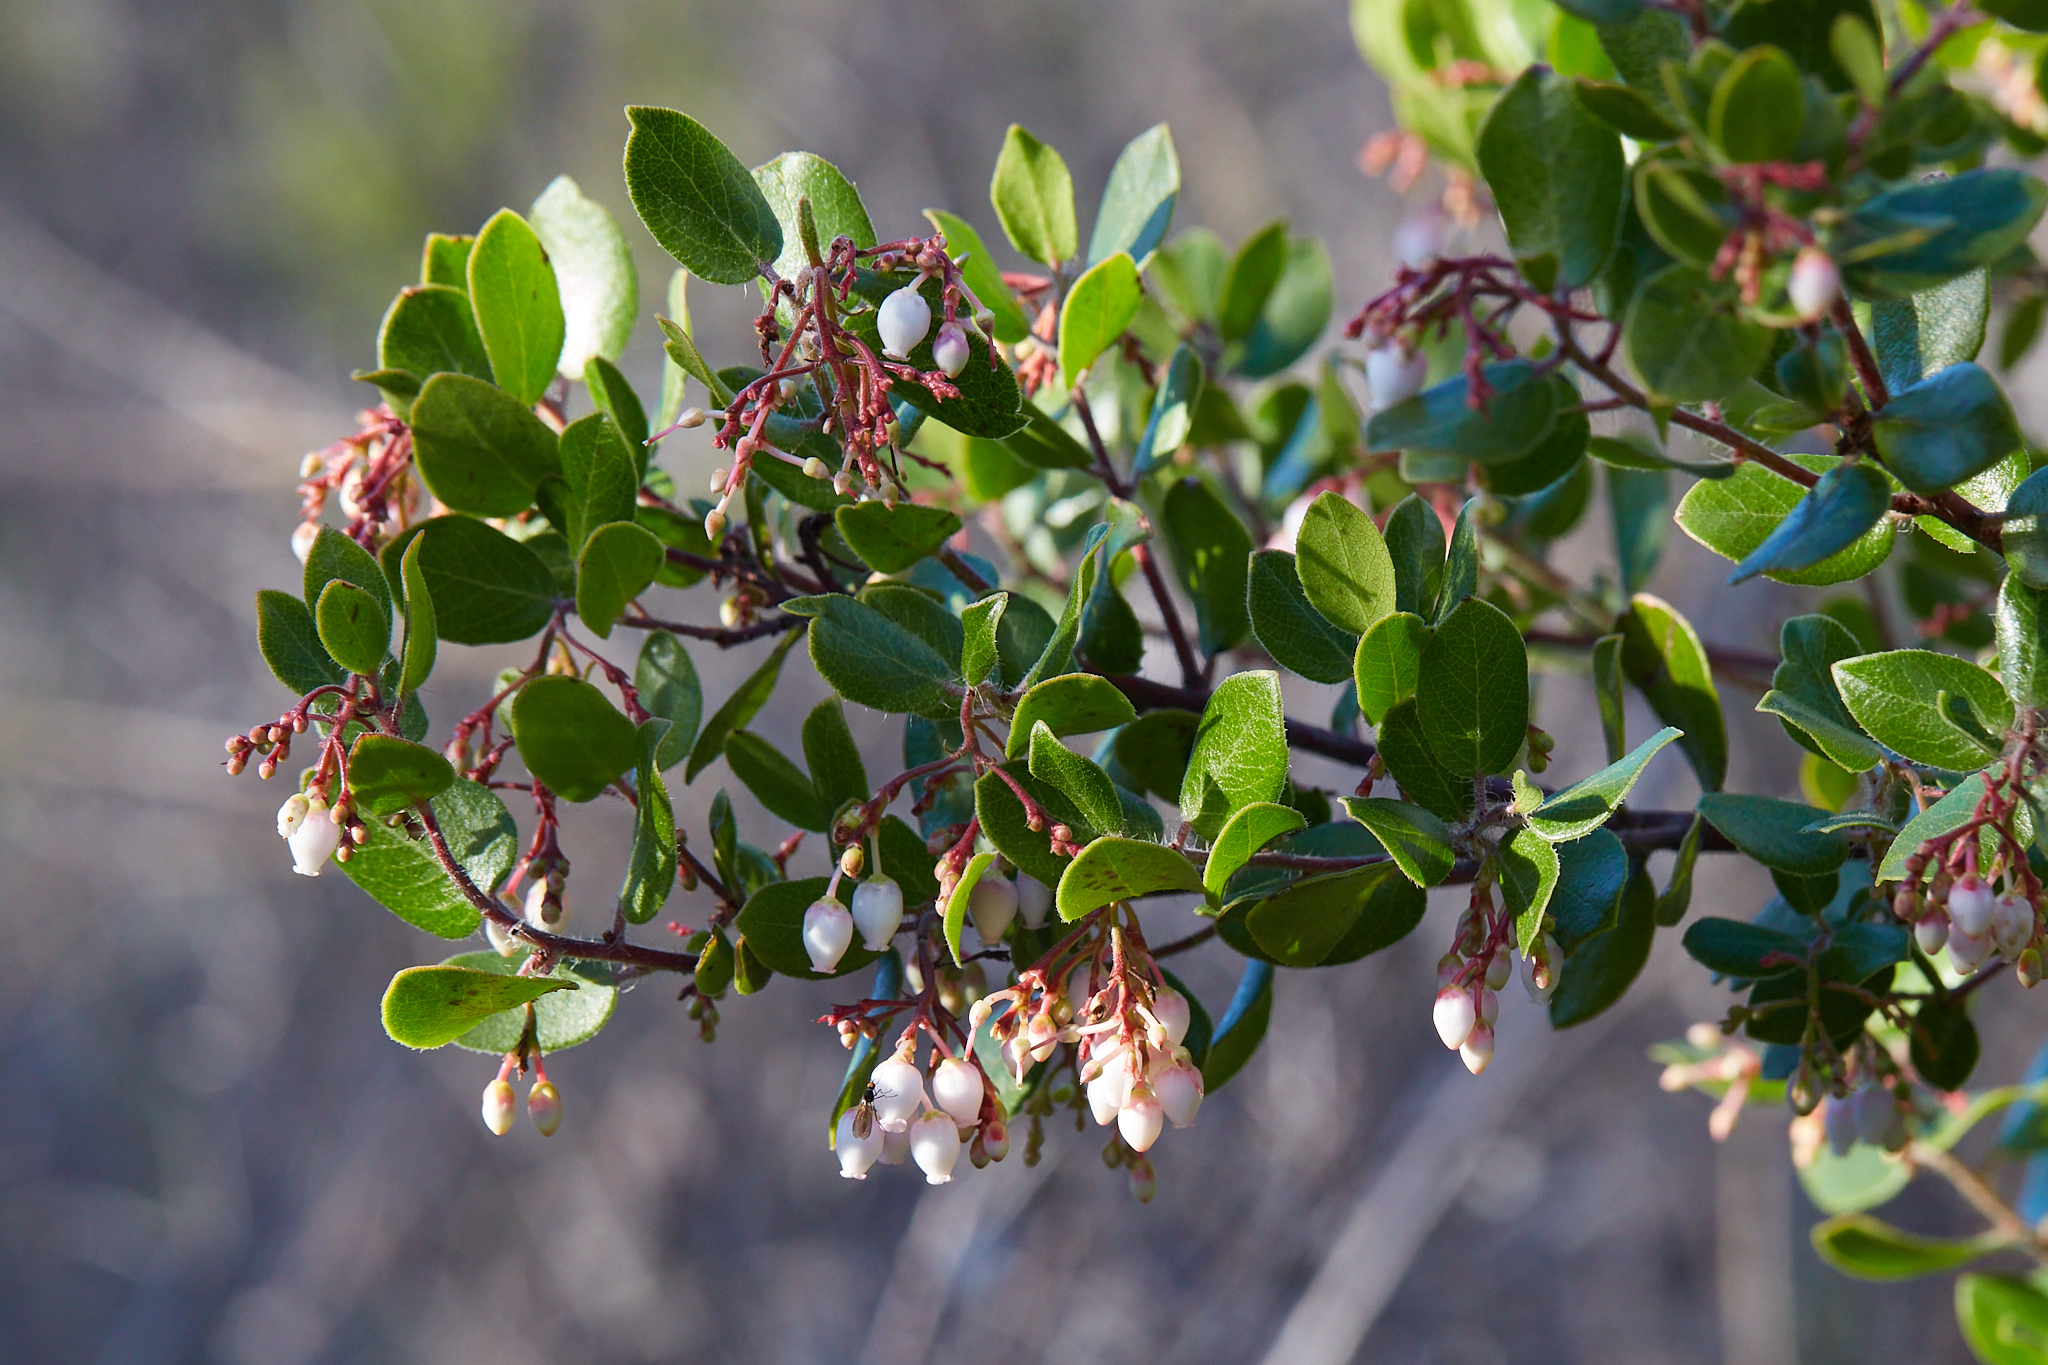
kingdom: Plantae
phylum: Tracheophyta
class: Magnoliopsida
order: Ericales
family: Ericaceae
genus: Arctostaphylos
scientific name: Arctostaphylos nummularia
